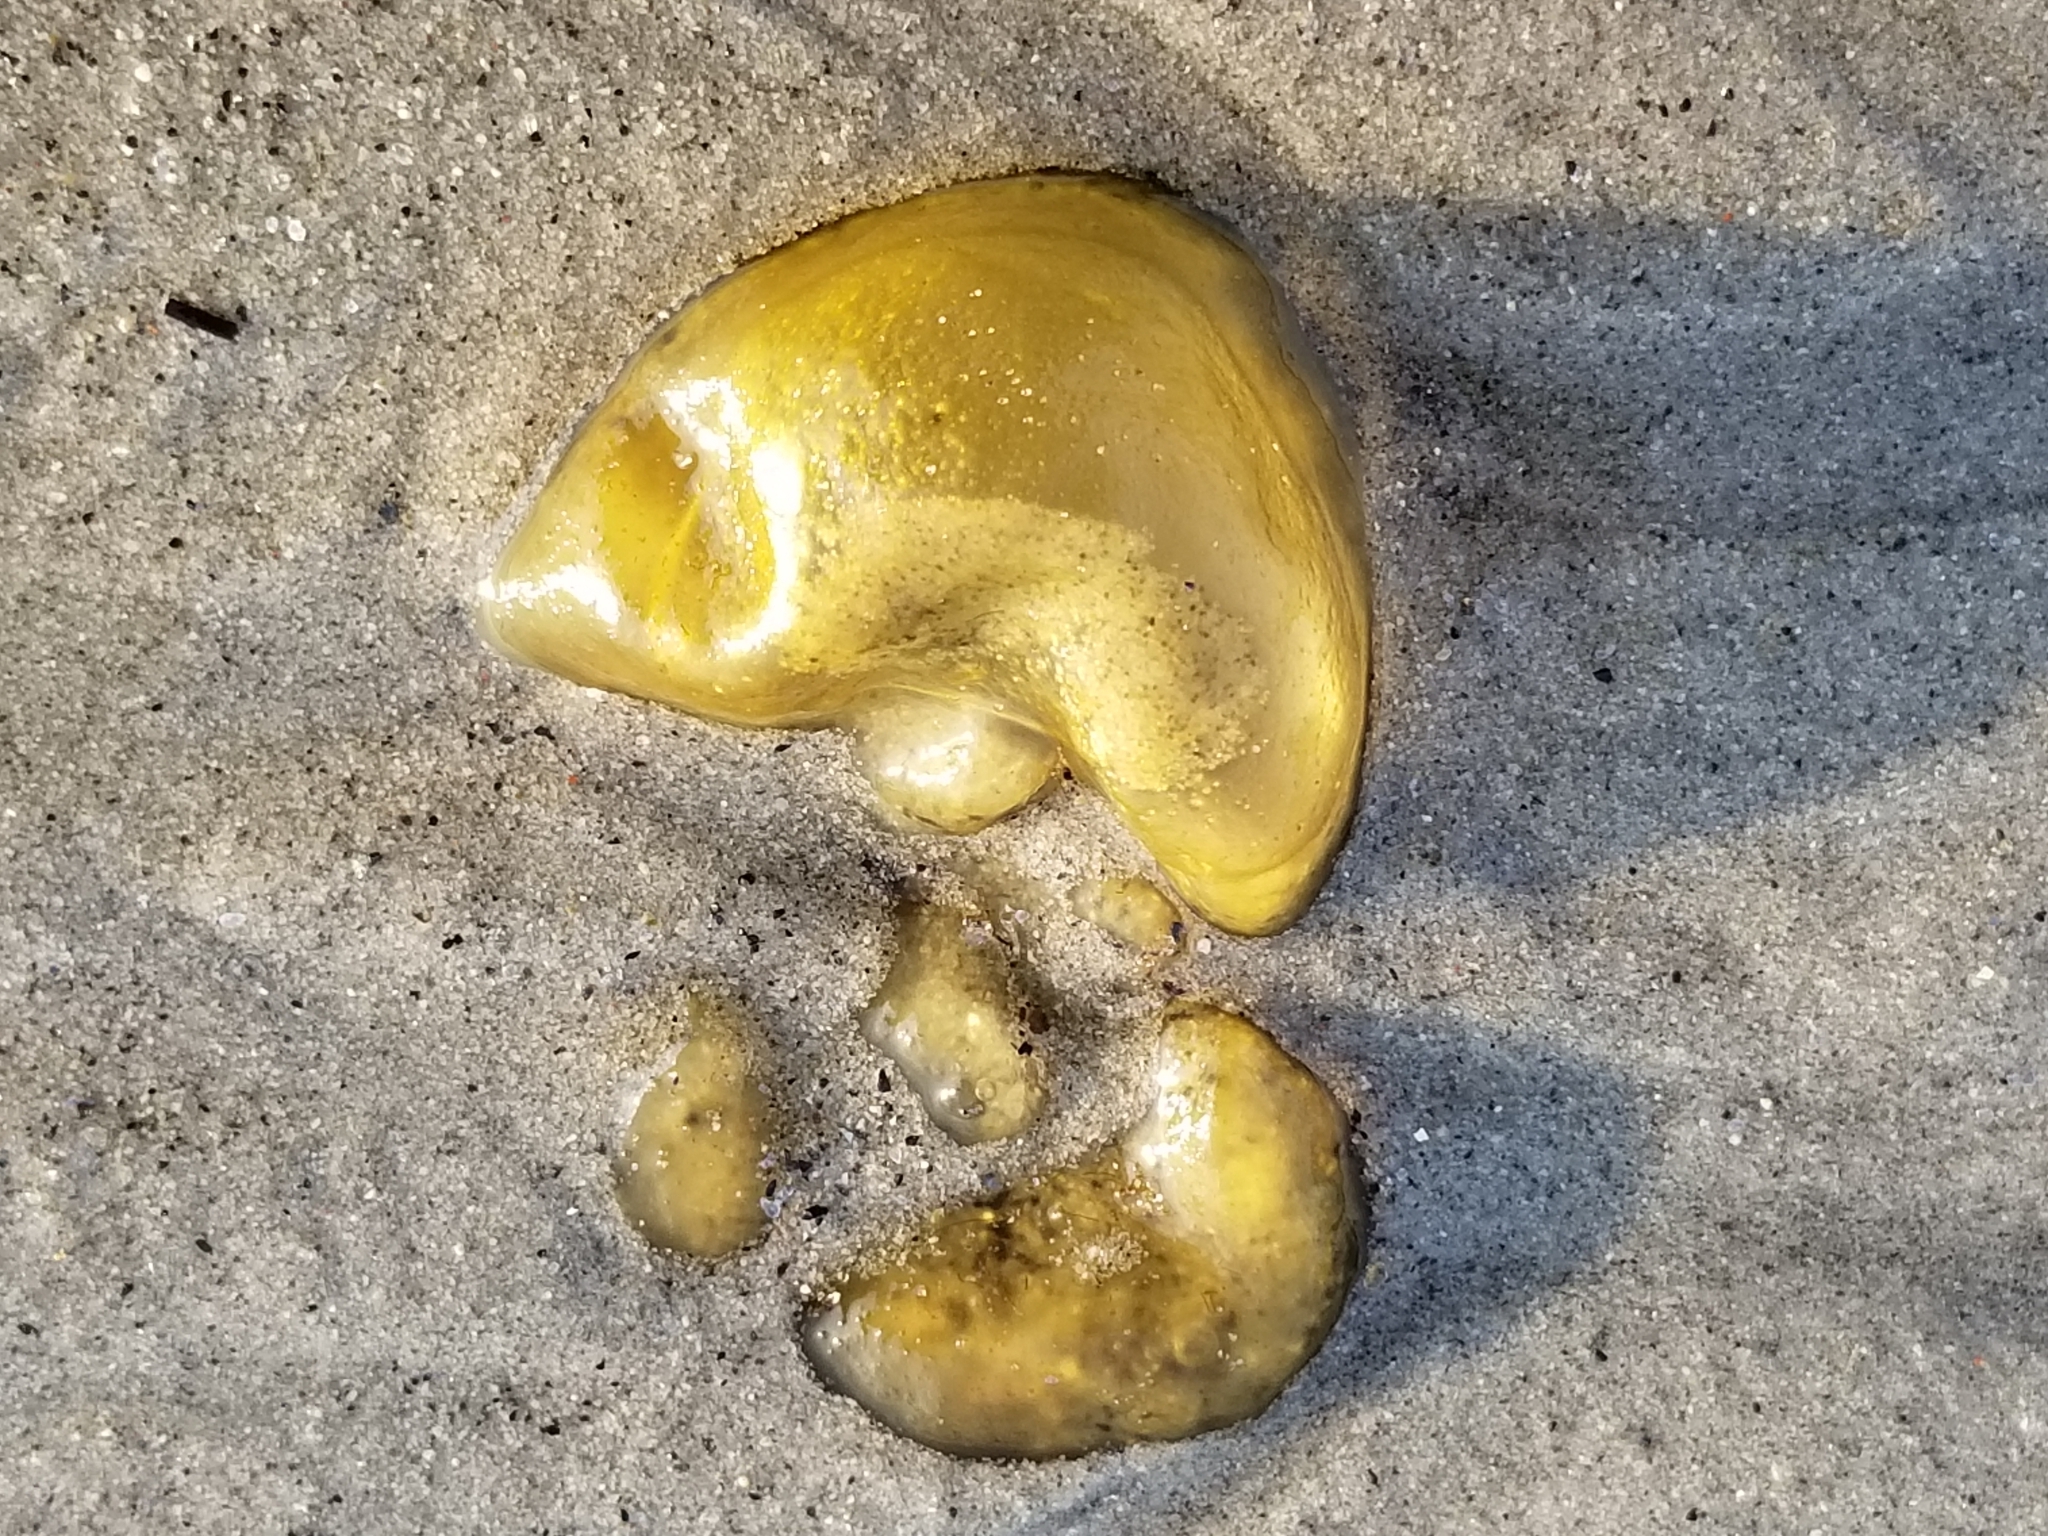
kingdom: Chromista
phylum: Ochrophyta
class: Phaeophyceae
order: Scytosiphonales
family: Scytosiphonaceae
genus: Colpomenia
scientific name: Colpomenia peregrina
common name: Oyster thief
